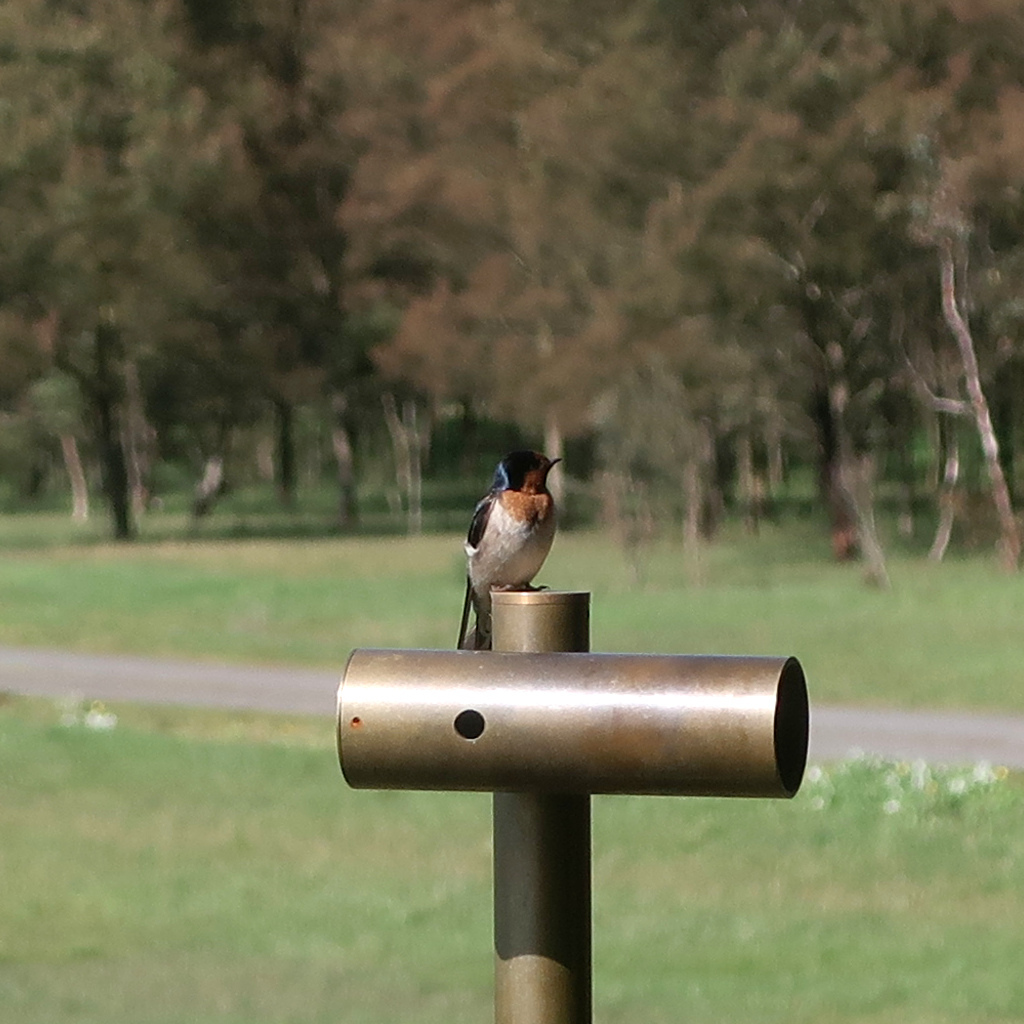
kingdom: Animalia
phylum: Chordata
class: Aves
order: Passeriformes
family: Hirundinidae
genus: Hirundo
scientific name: Hirundo neoxena
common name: Welcome swallow
